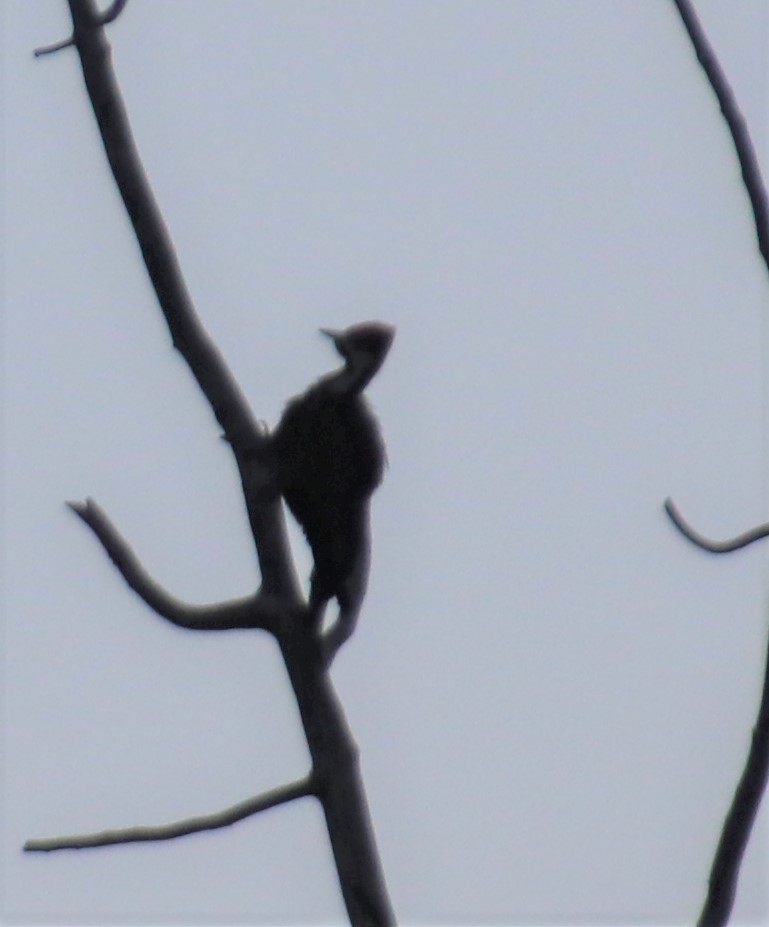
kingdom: Animalia
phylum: Chordata
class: Aves
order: Piciformes
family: Picidae
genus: Dryocopus
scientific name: Dryocopus pileatus
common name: Pileated woodpecker
